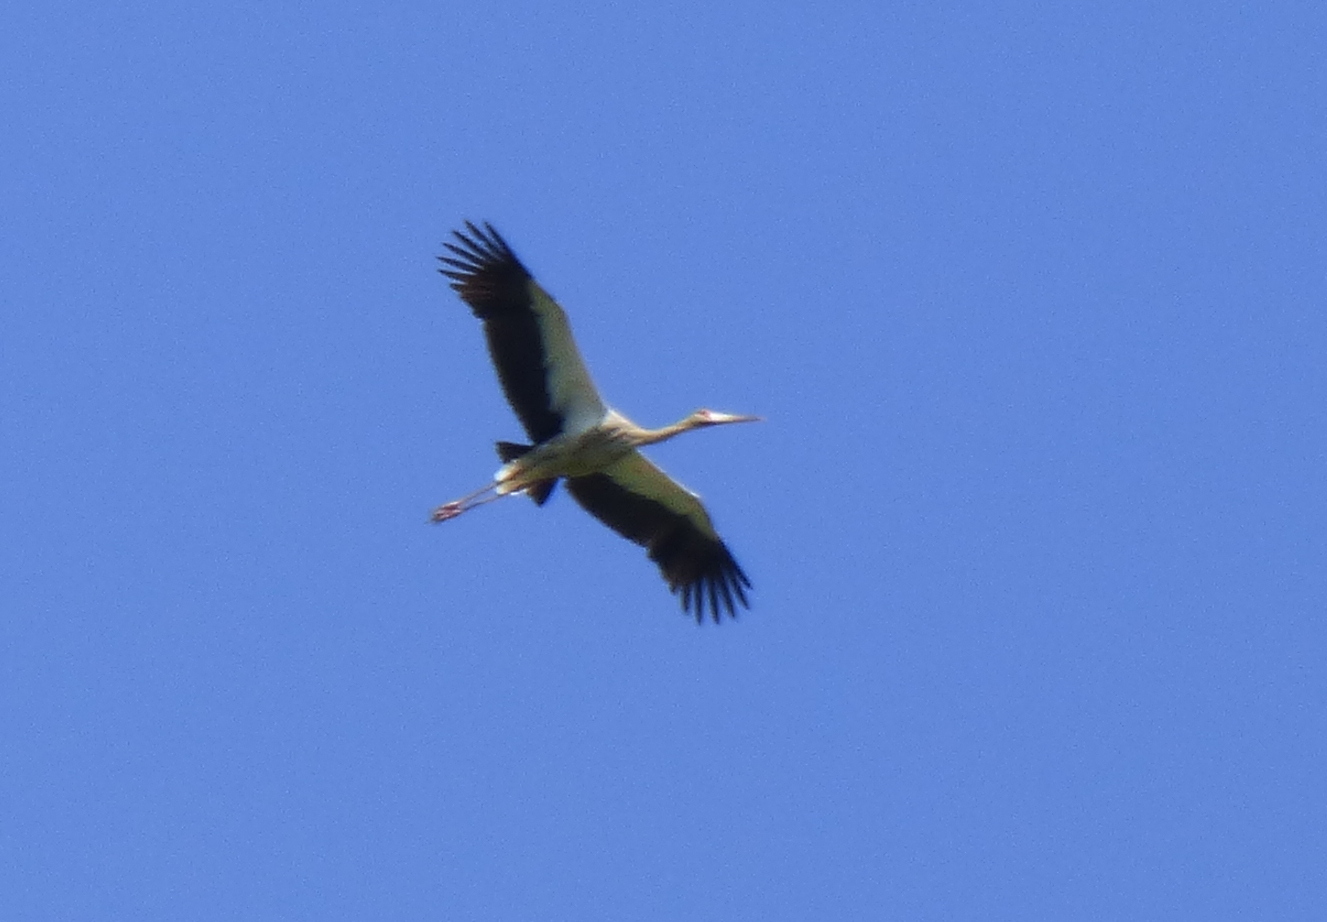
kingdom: Animalia
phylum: Chordata
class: Aves
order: Ciconiiformes
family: Ciconiidae
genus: Ciconia
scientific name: Ciconia maguari
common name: Maguari stork
